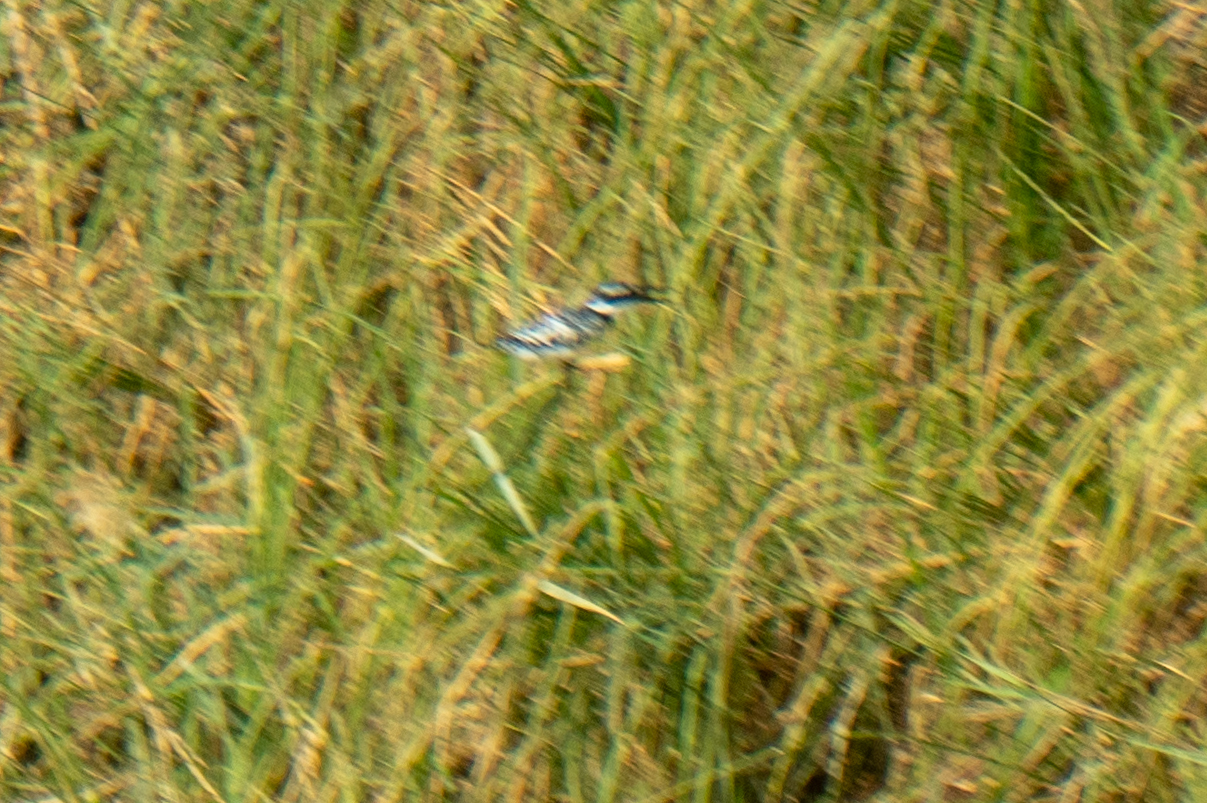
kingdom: Animalia
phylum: Chordata
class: Aves
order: Coraciiformes
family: Alcedinidae
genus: Ceryle
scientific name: Ceryle rudis
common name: Pied kingfisher
